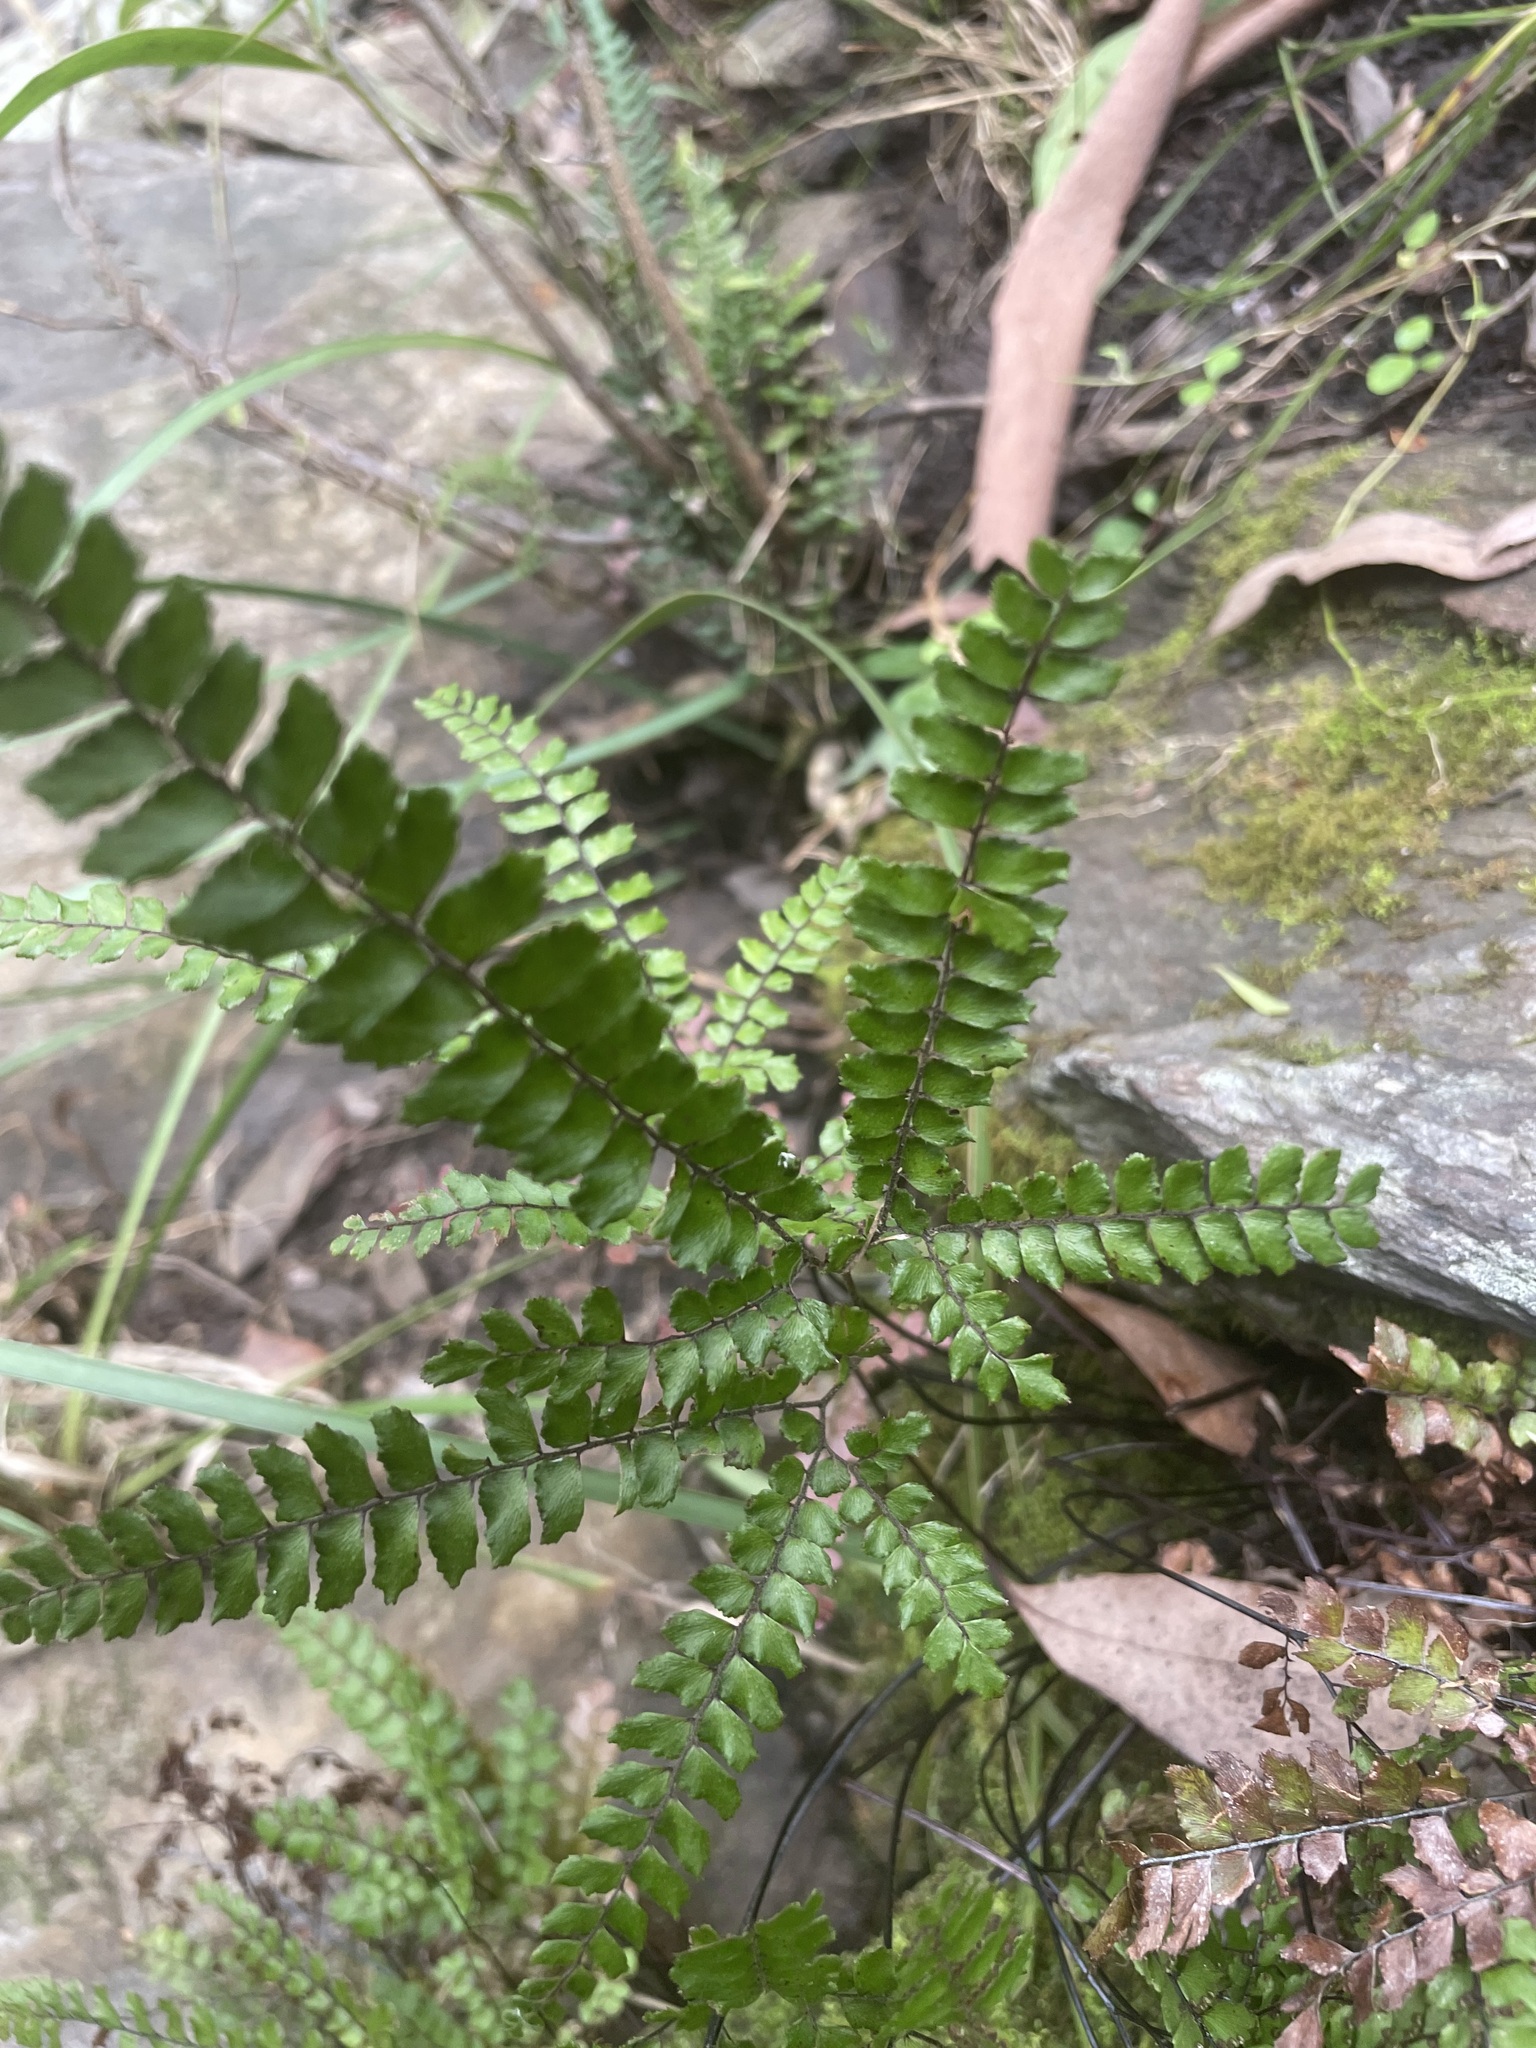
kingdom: Plantae
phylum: Tracheophyta
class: Polypodiopsida
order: Polypodiales
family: Pteridaceae
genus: Adiantum
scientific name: Adiantum hispidulum
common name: Rough maidenhair
